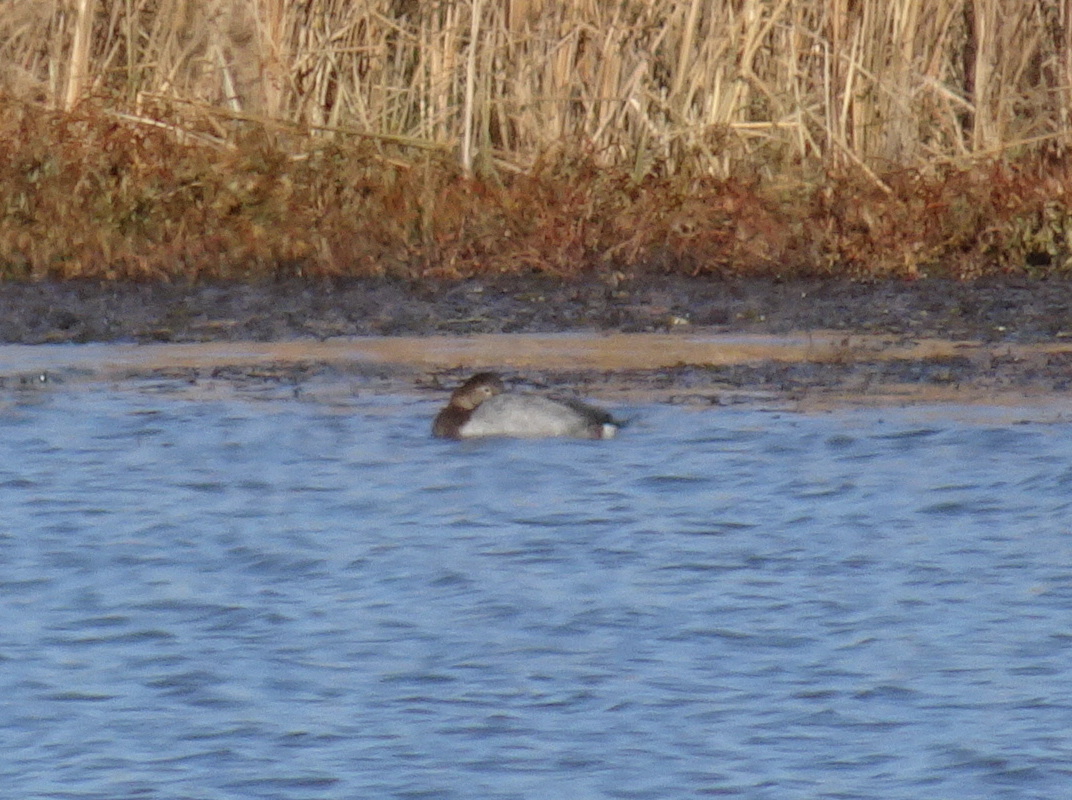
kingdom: Animalia
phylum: Chordata
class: Aves
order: Anseriformes
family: Anatidae
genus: Aythya
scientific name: Aythya valisineria
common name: Canvasback
